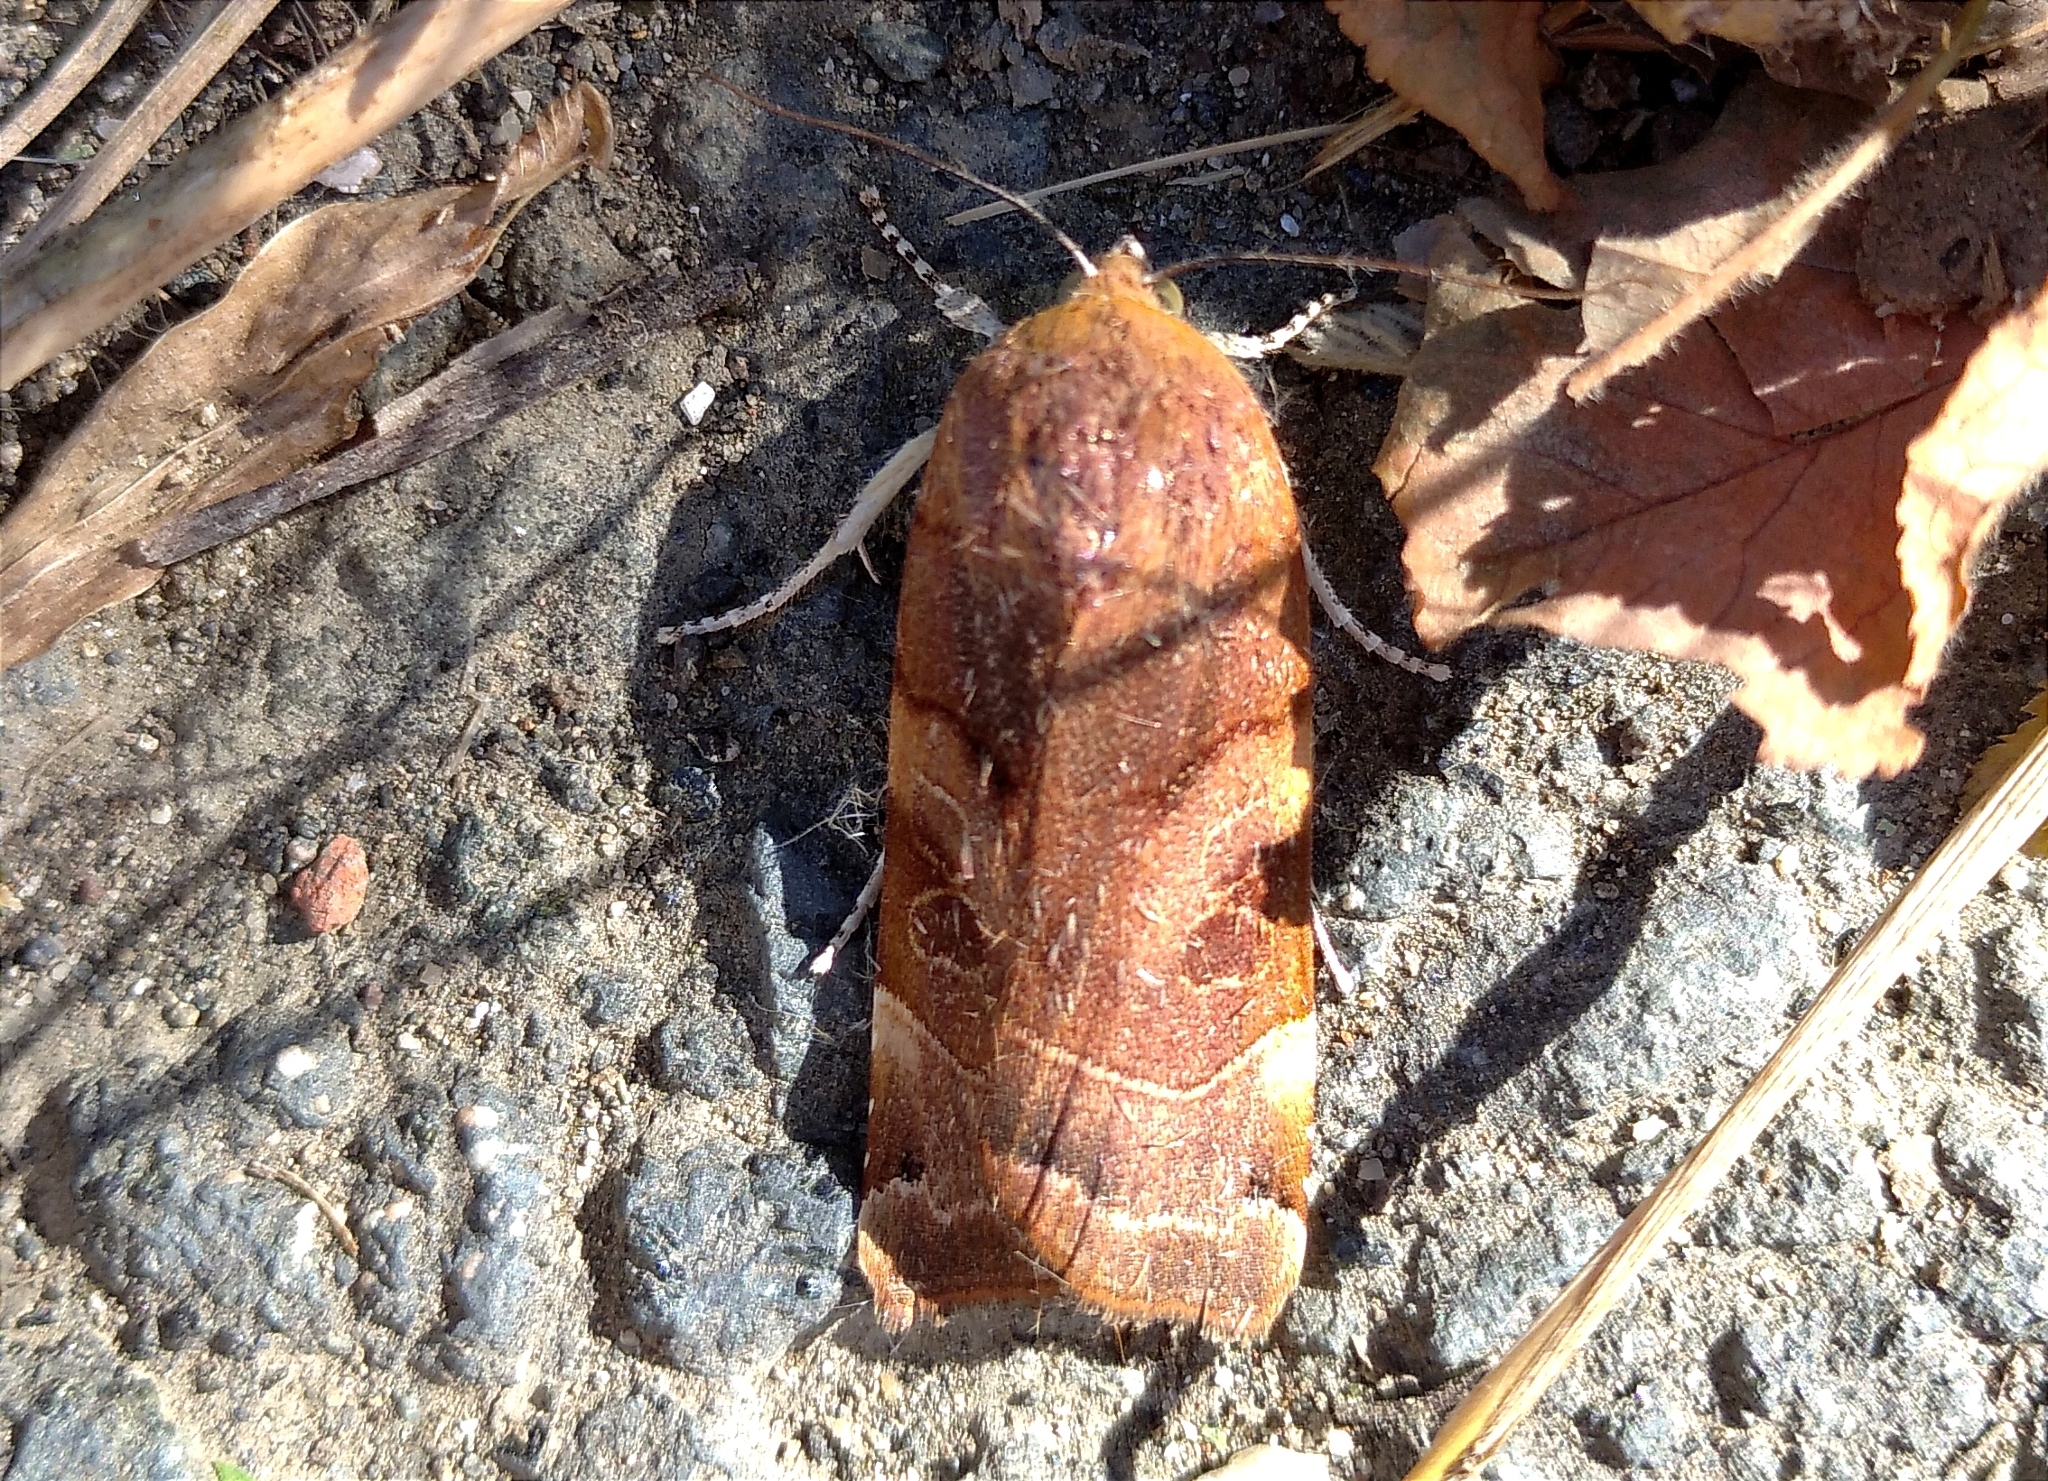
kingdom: Animalia
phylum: Arthropoda
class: Insecta
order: Lepidoptera
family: Noctuidae
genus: Noctua
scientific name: Noctua fimbriata
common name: Broad-bordered yellow underwing
